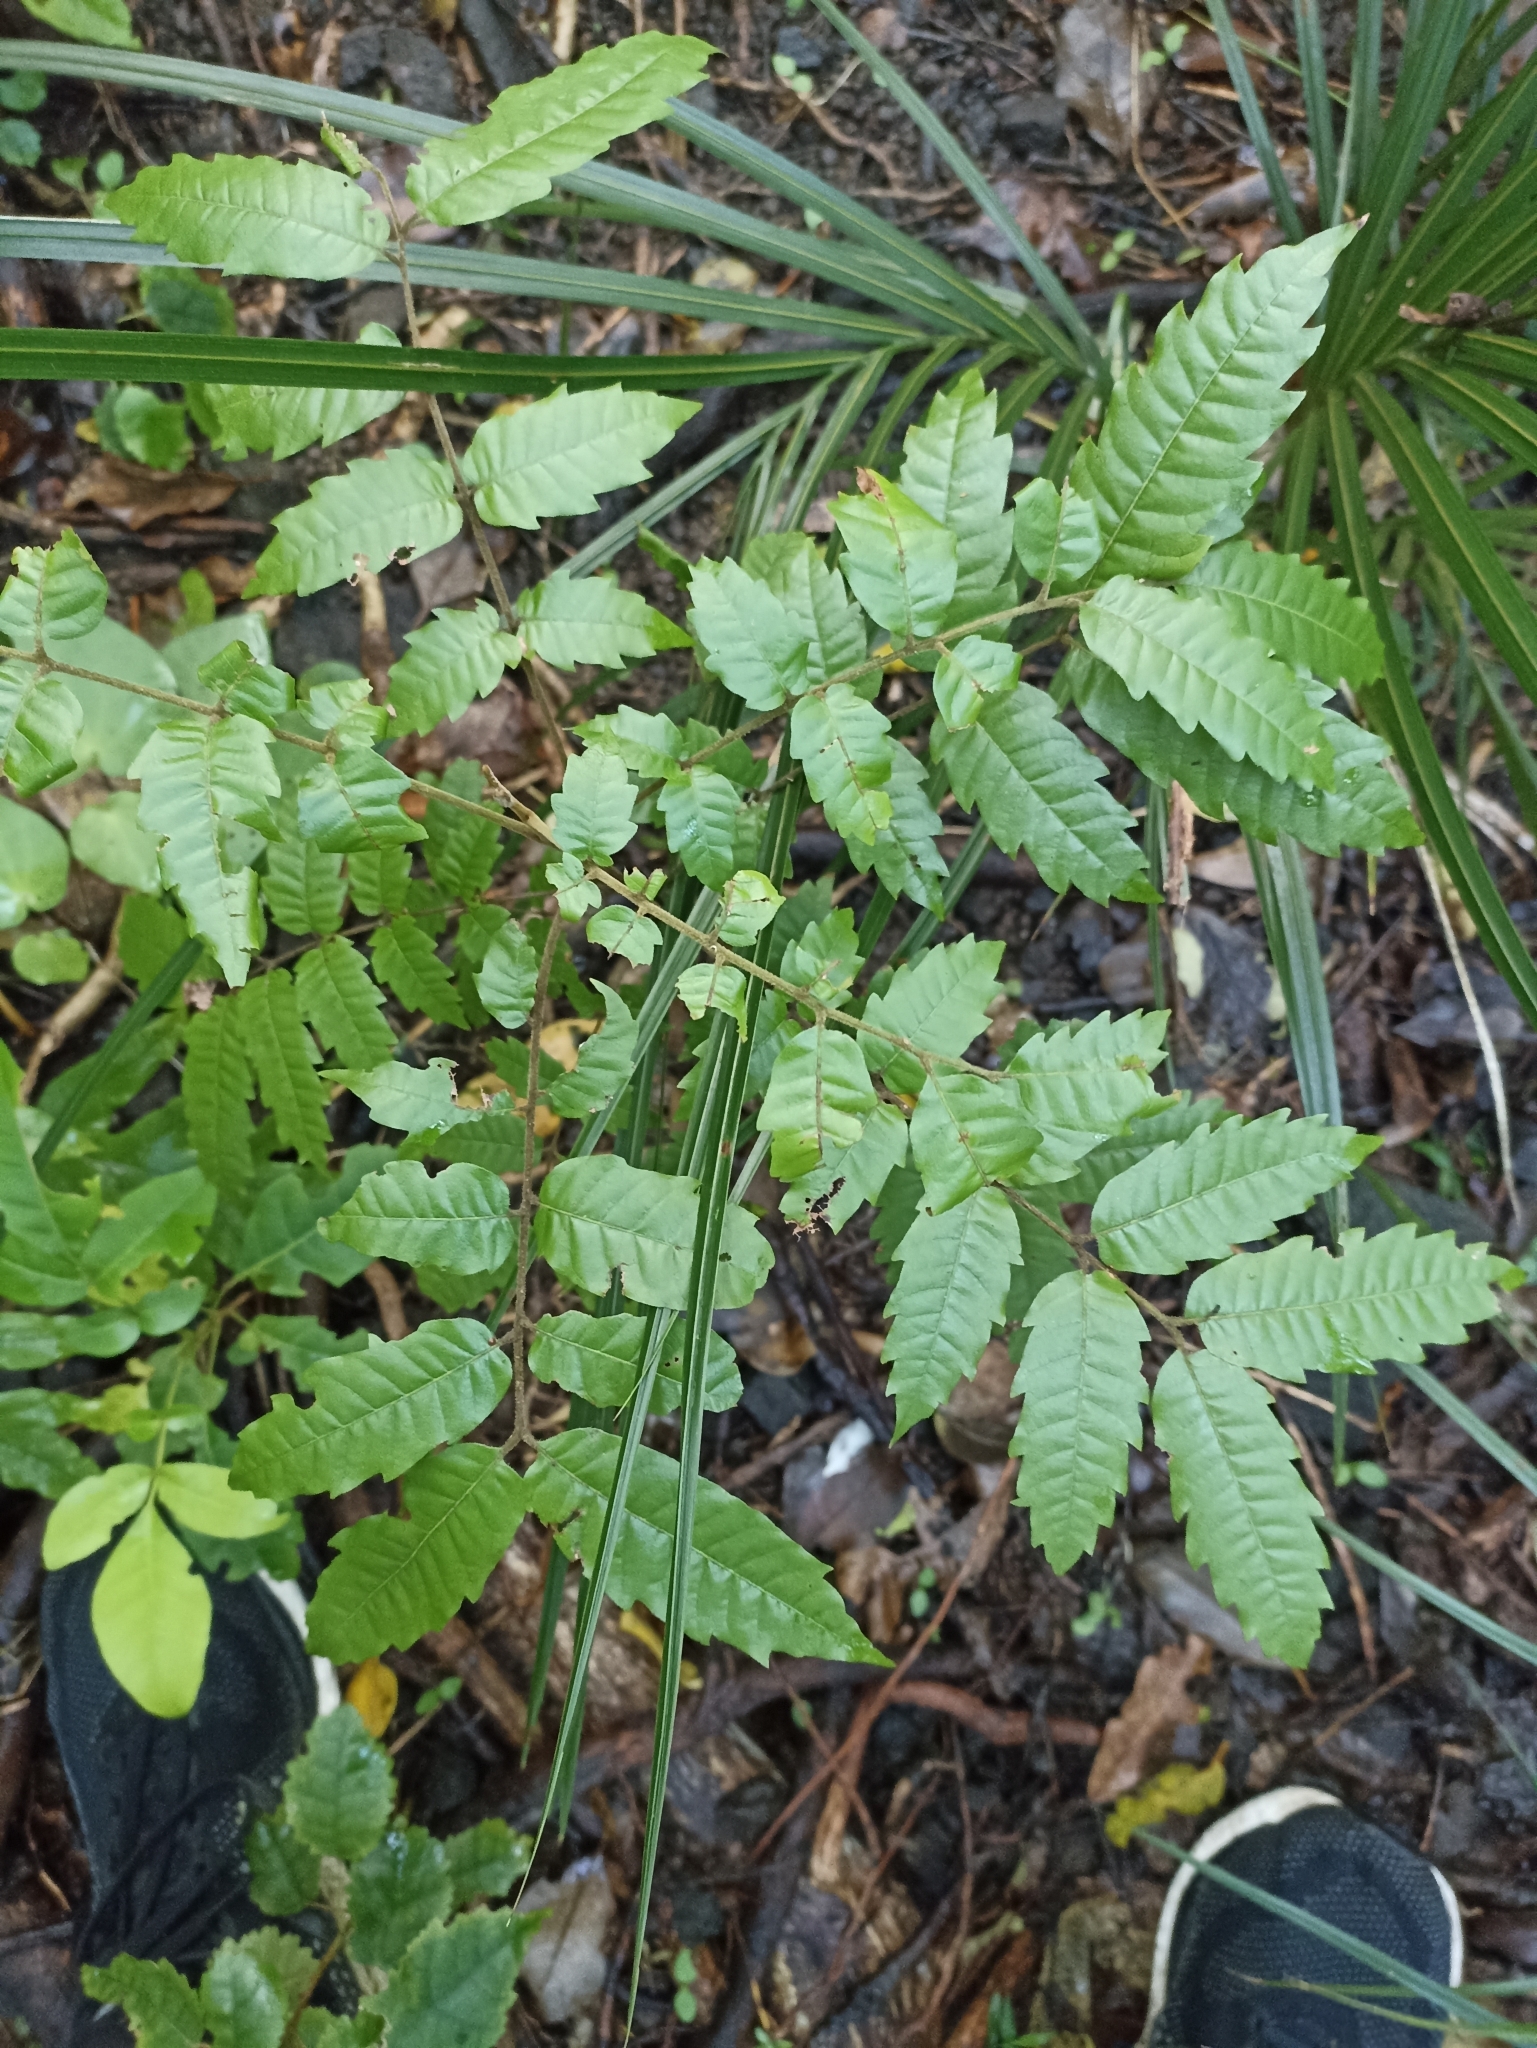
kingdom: Plantae
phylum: Tracheophyta
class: Magnoliopsida
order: Sapindales
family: Sapindaceae
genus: Alectryon
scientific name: Alectryon excelsus
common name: Three kings titoki
